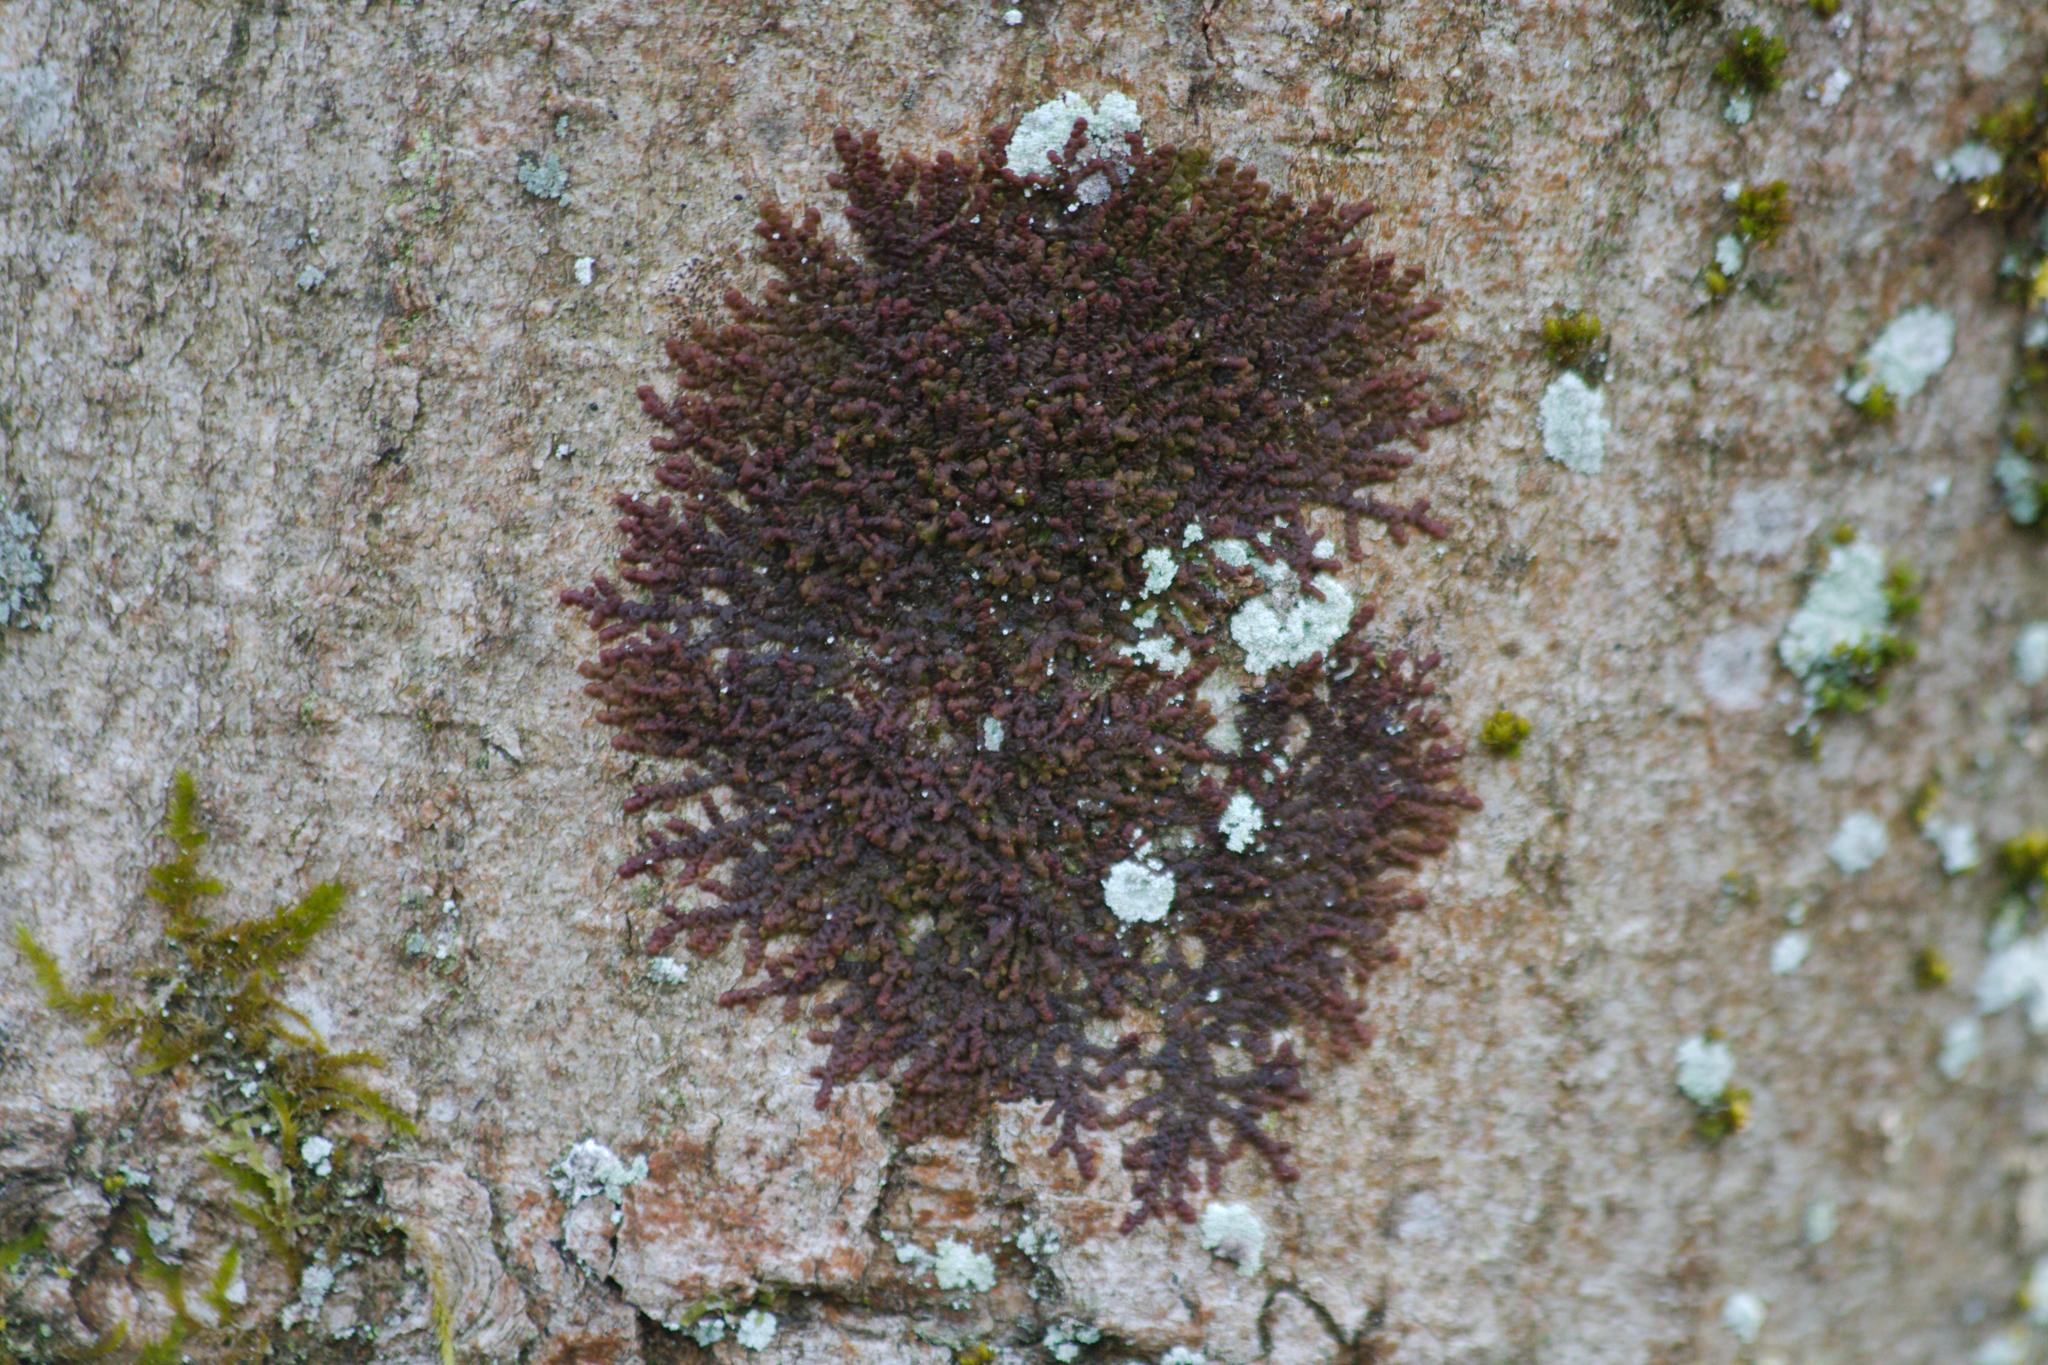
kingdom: Plantae
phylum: Marchantiophyta
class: Jungermanniopsida
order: Porellales
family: Frullaniaceae
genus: Frullania
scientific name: Frullania dilatata
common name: Dilated scalewort
